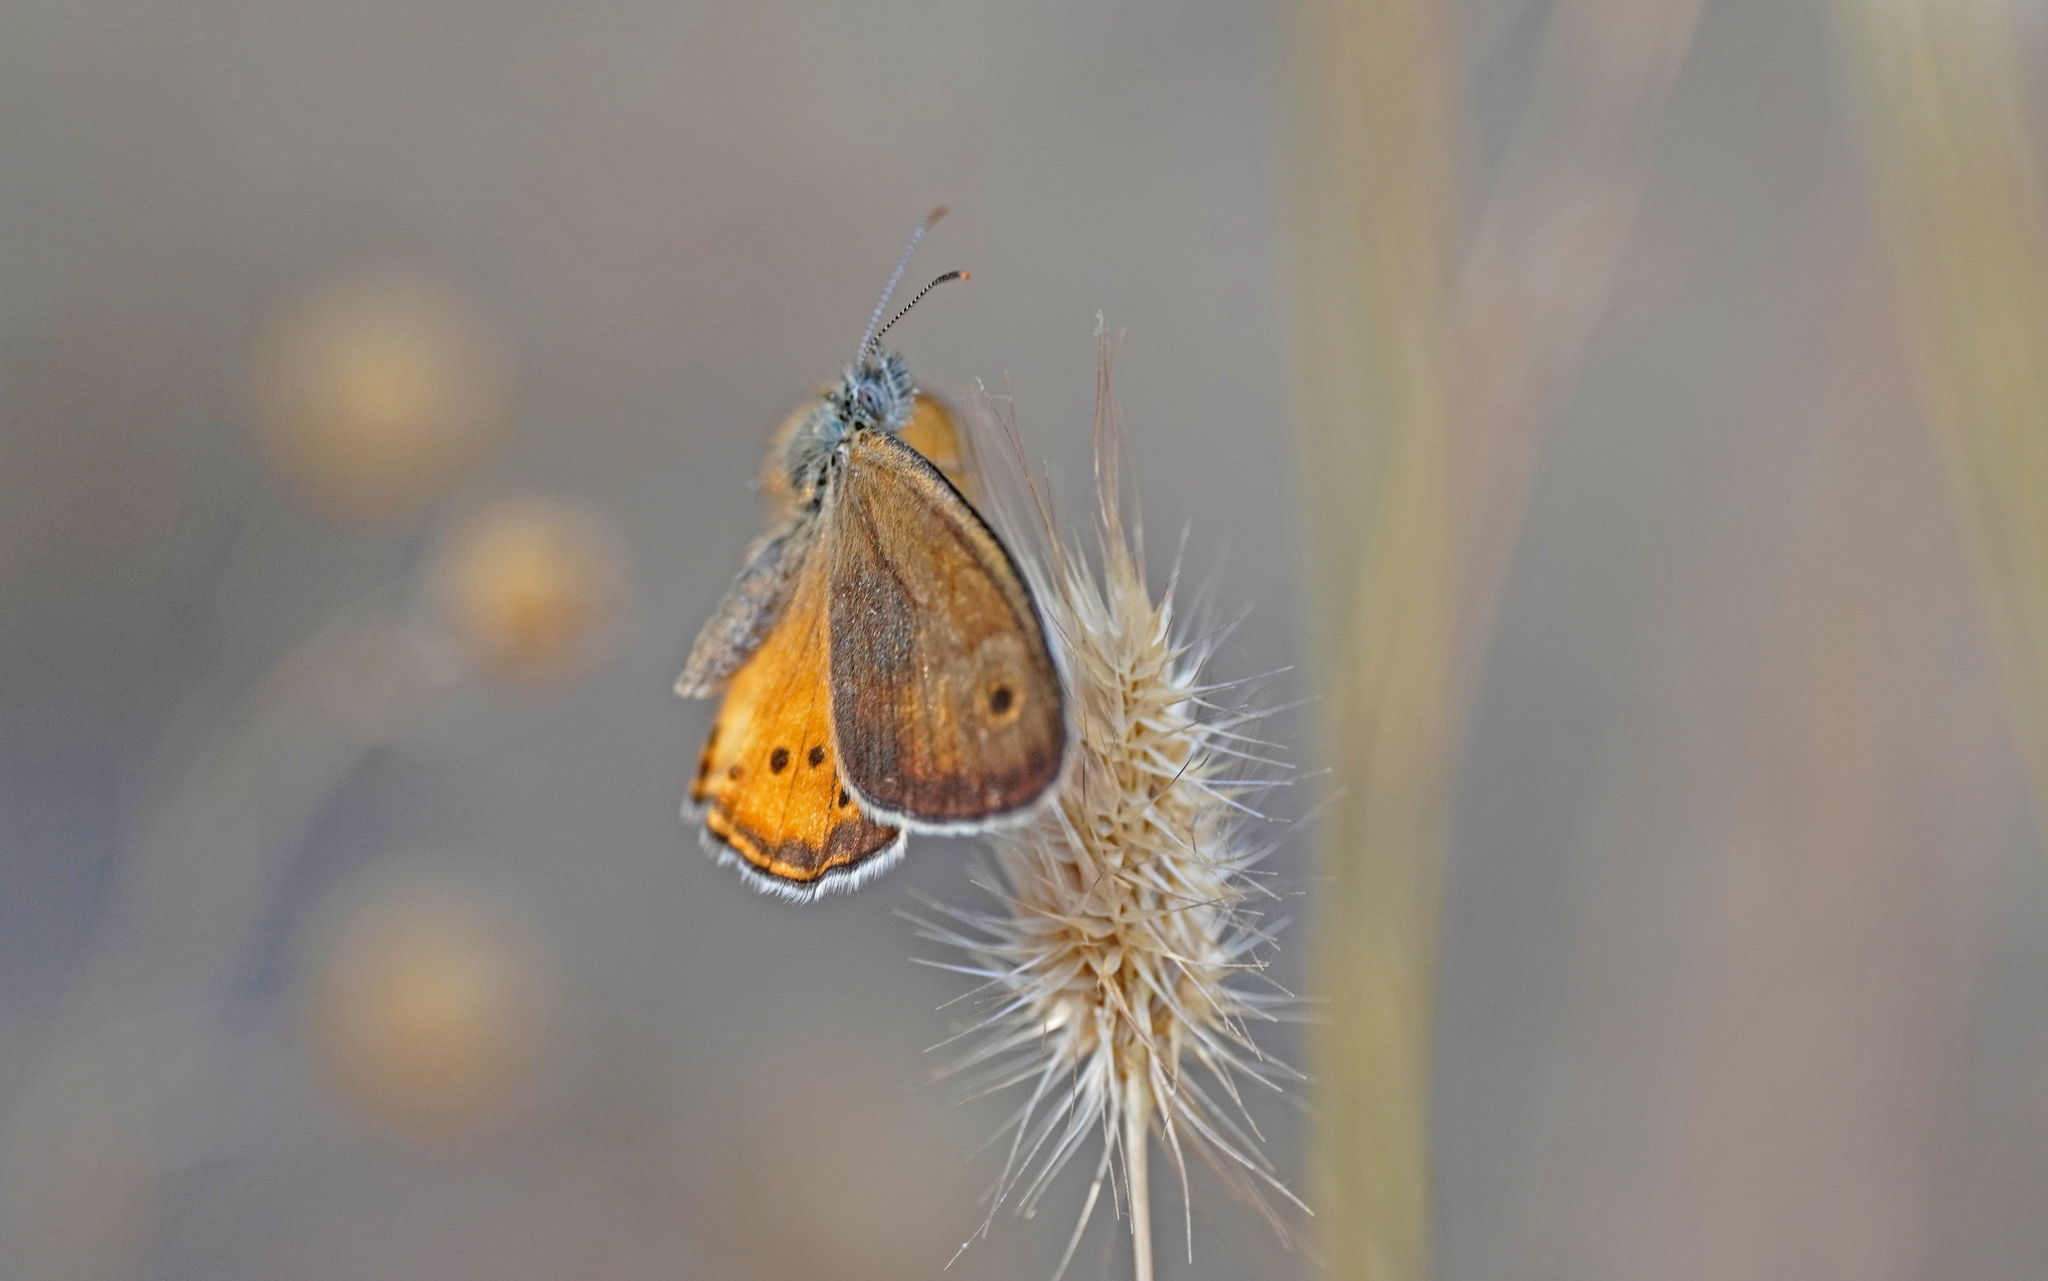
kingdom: Animalia
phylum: Arthropoda
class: Insecta
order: Lepidoptera
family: Nymphalidae
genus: Coenonympha
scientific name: Coenonympha dorus
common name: Dusky heath
